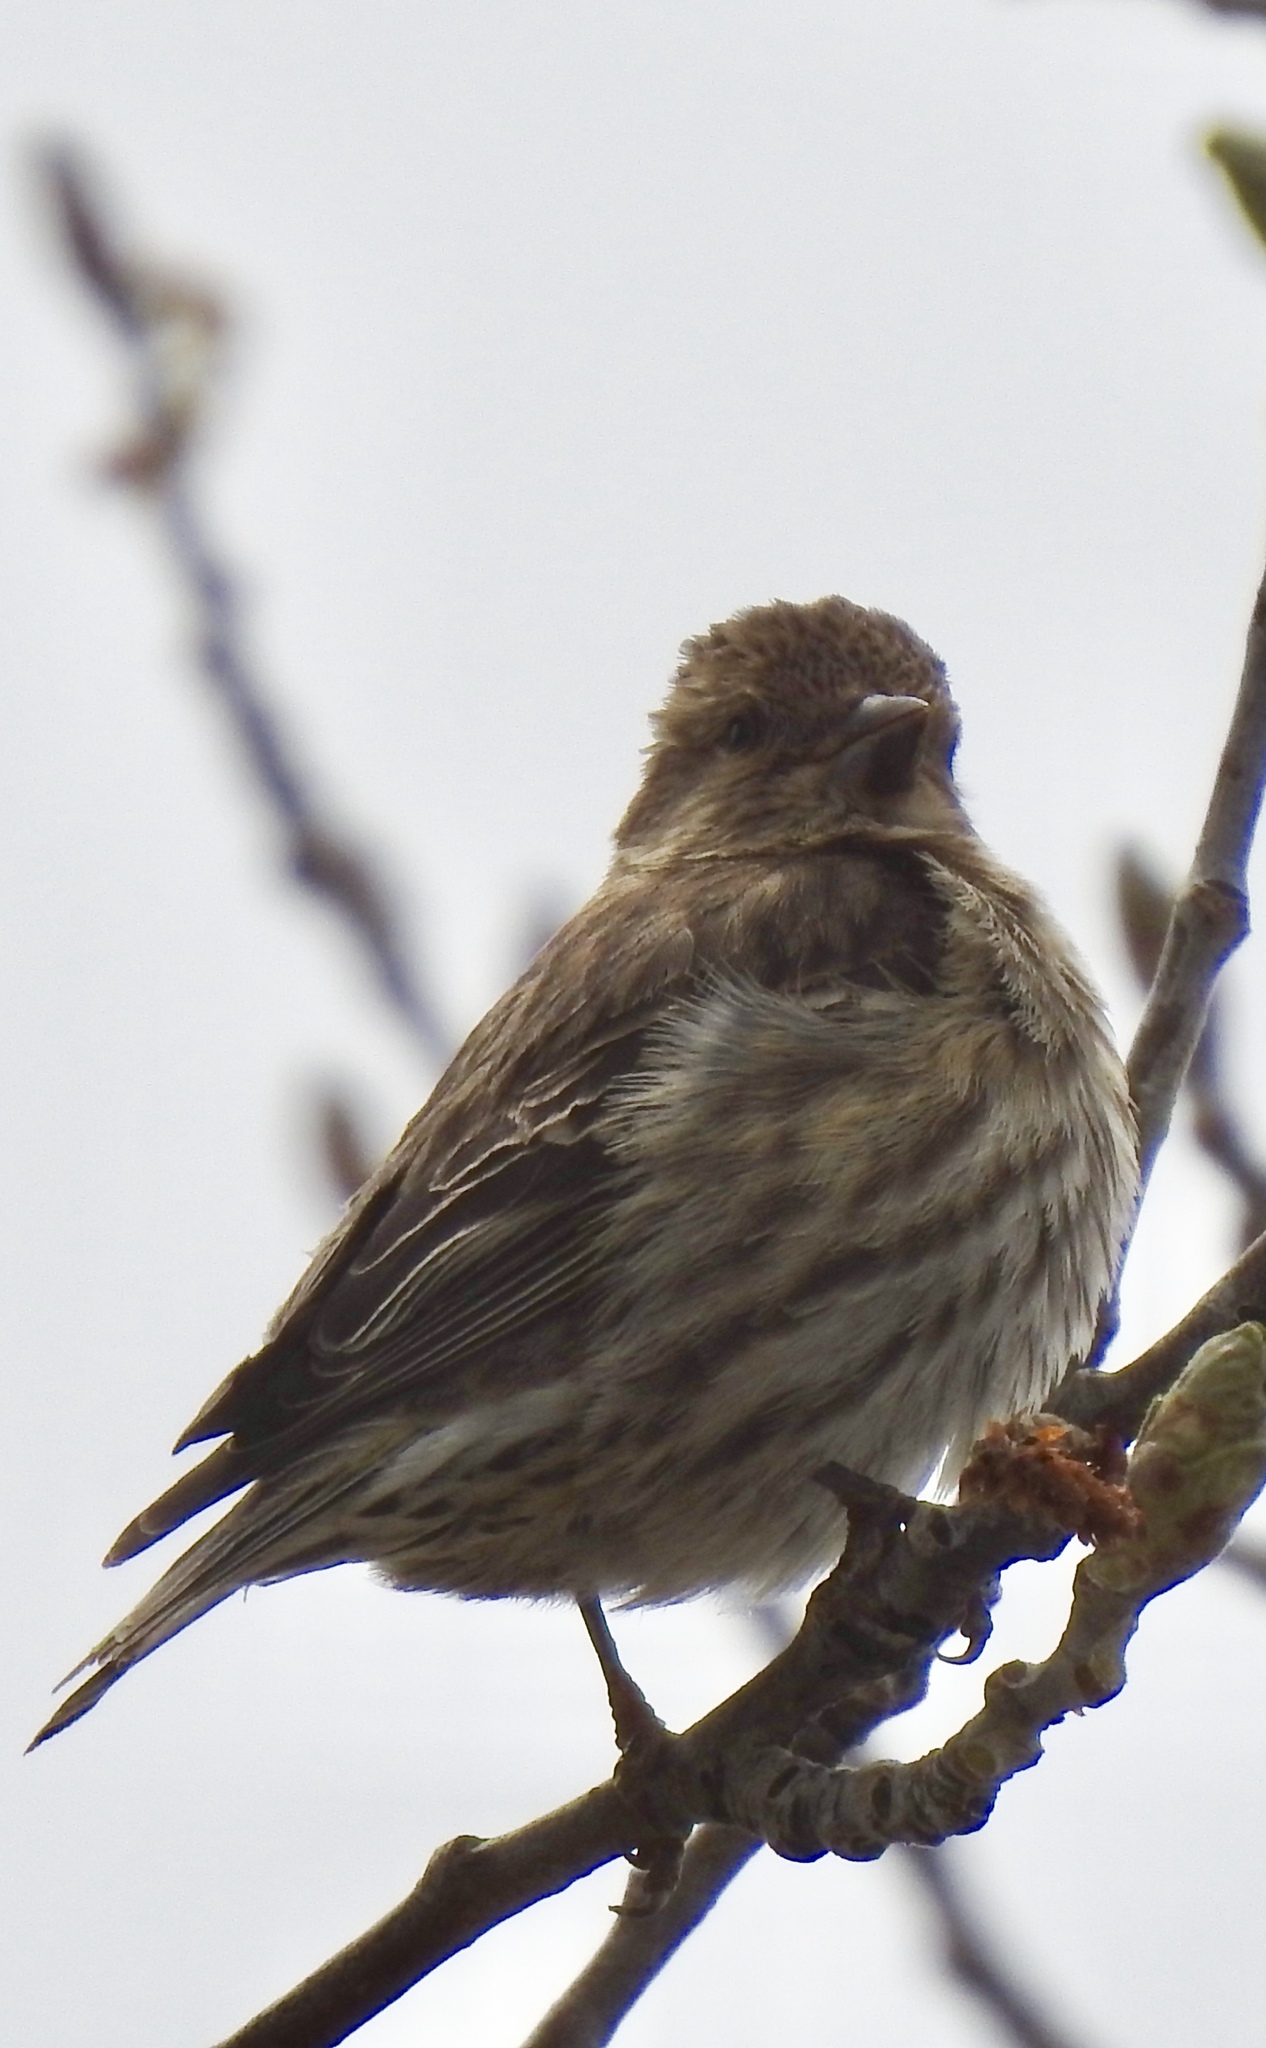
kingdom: Animalia
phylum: Chordata
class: Aves
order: Passeriformes
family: Fringillidae
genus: Spinus
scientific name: Spinus pinus
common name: Pine siskin
